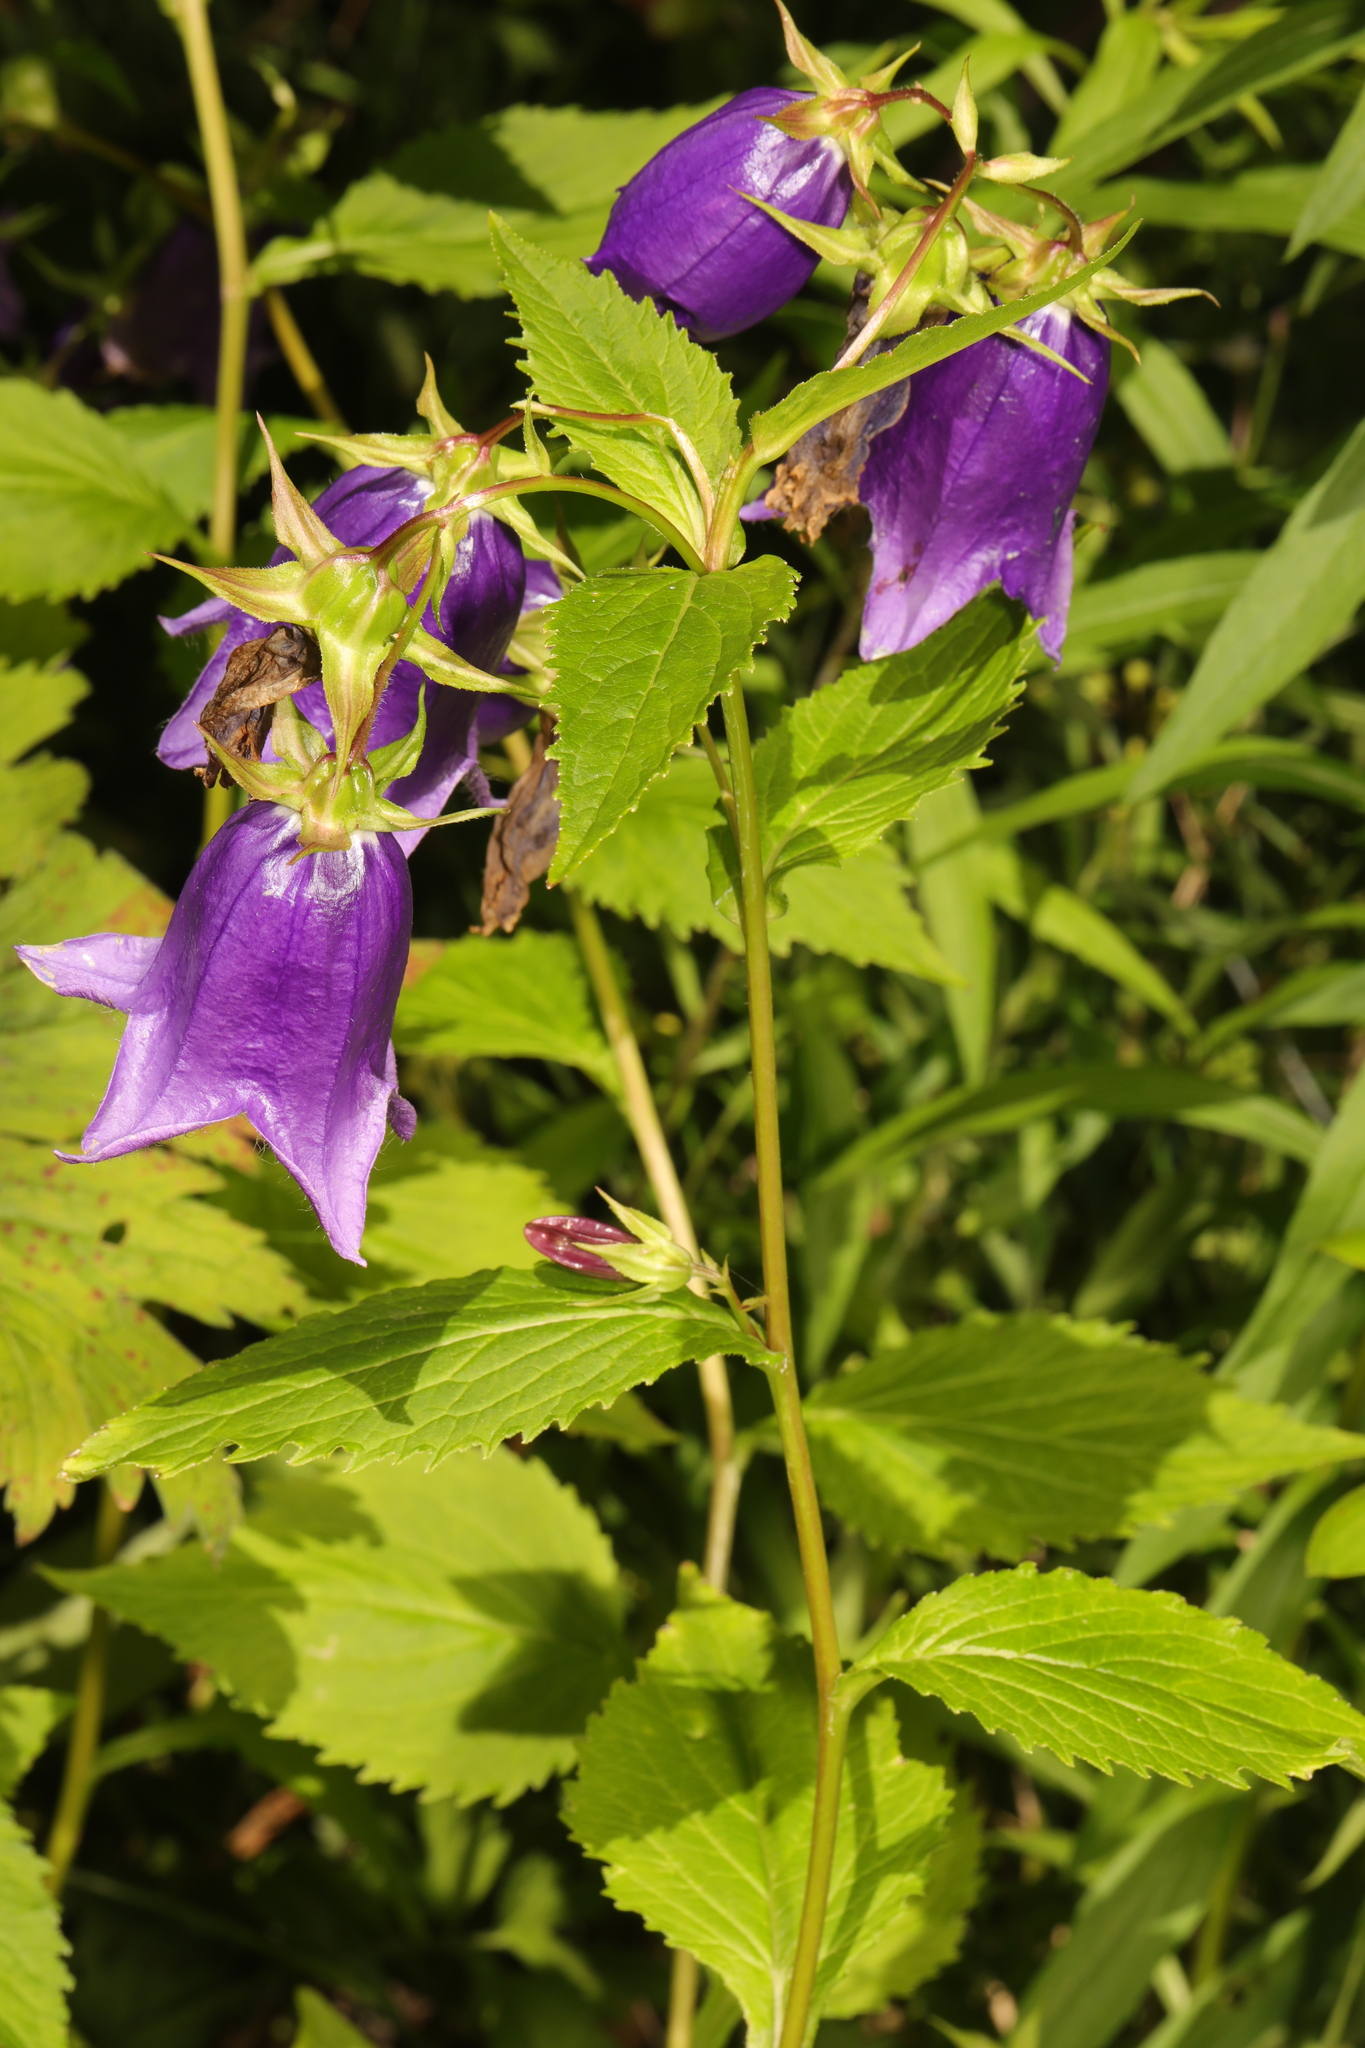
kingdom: Plantae
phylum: Tracheophyta
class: Magnoliopsida
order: Asterales
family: Campanulaceae
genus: Campanula
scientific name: Campanula trachelium
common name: Nettle-leaved bellflower
